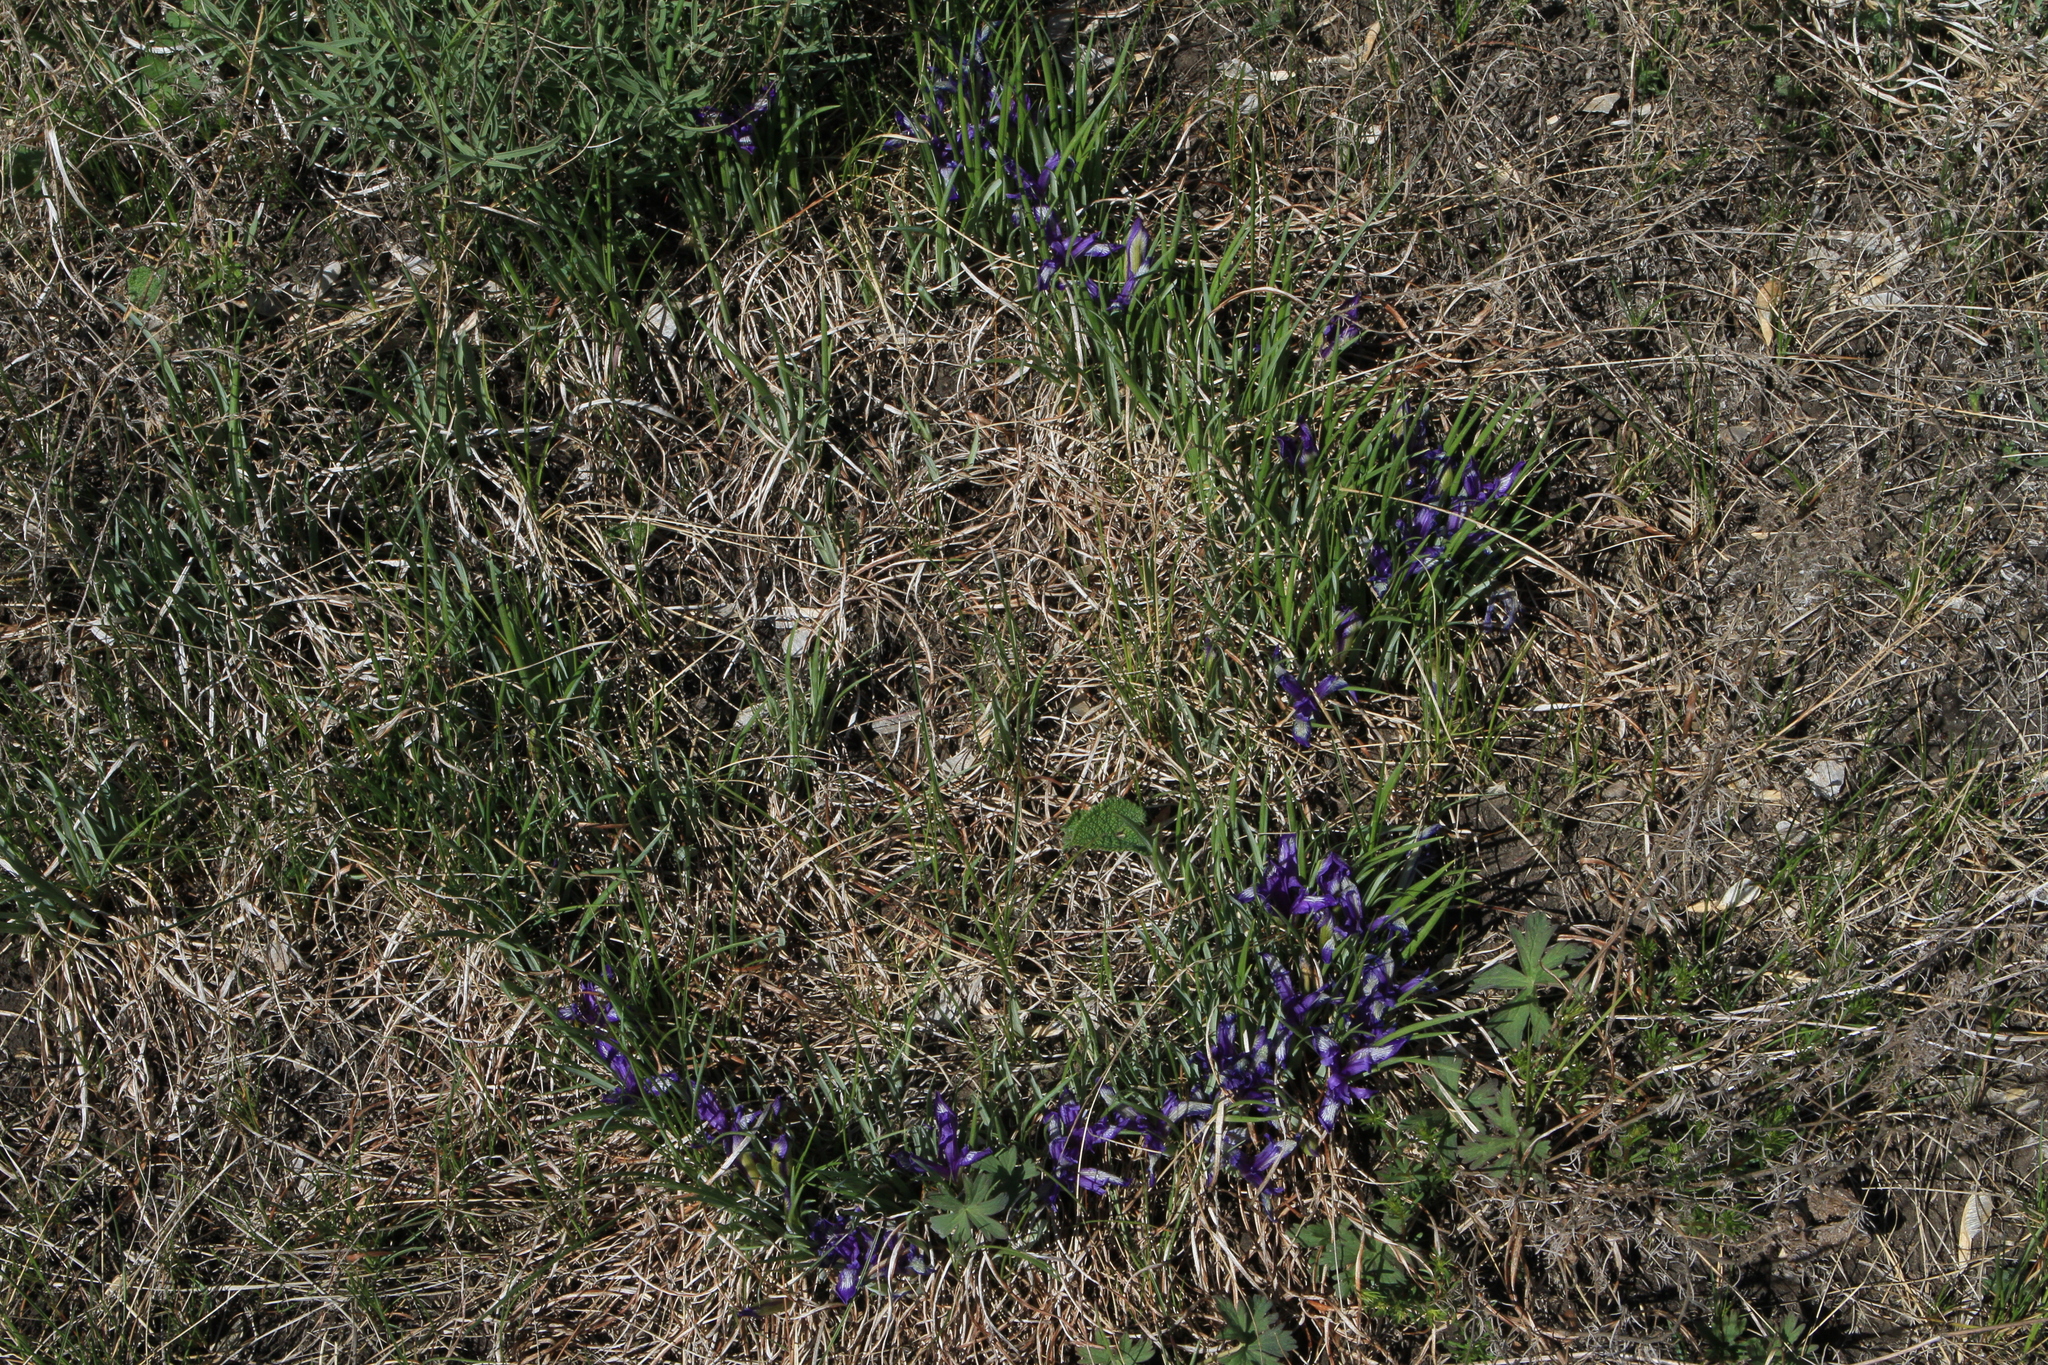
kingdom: Plantae
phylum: Tracheophyta
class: Liliopsida
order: Asparagales
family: Iridaceae
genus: Iris
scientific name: Iris ruthenica
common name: Purple-bract iris
